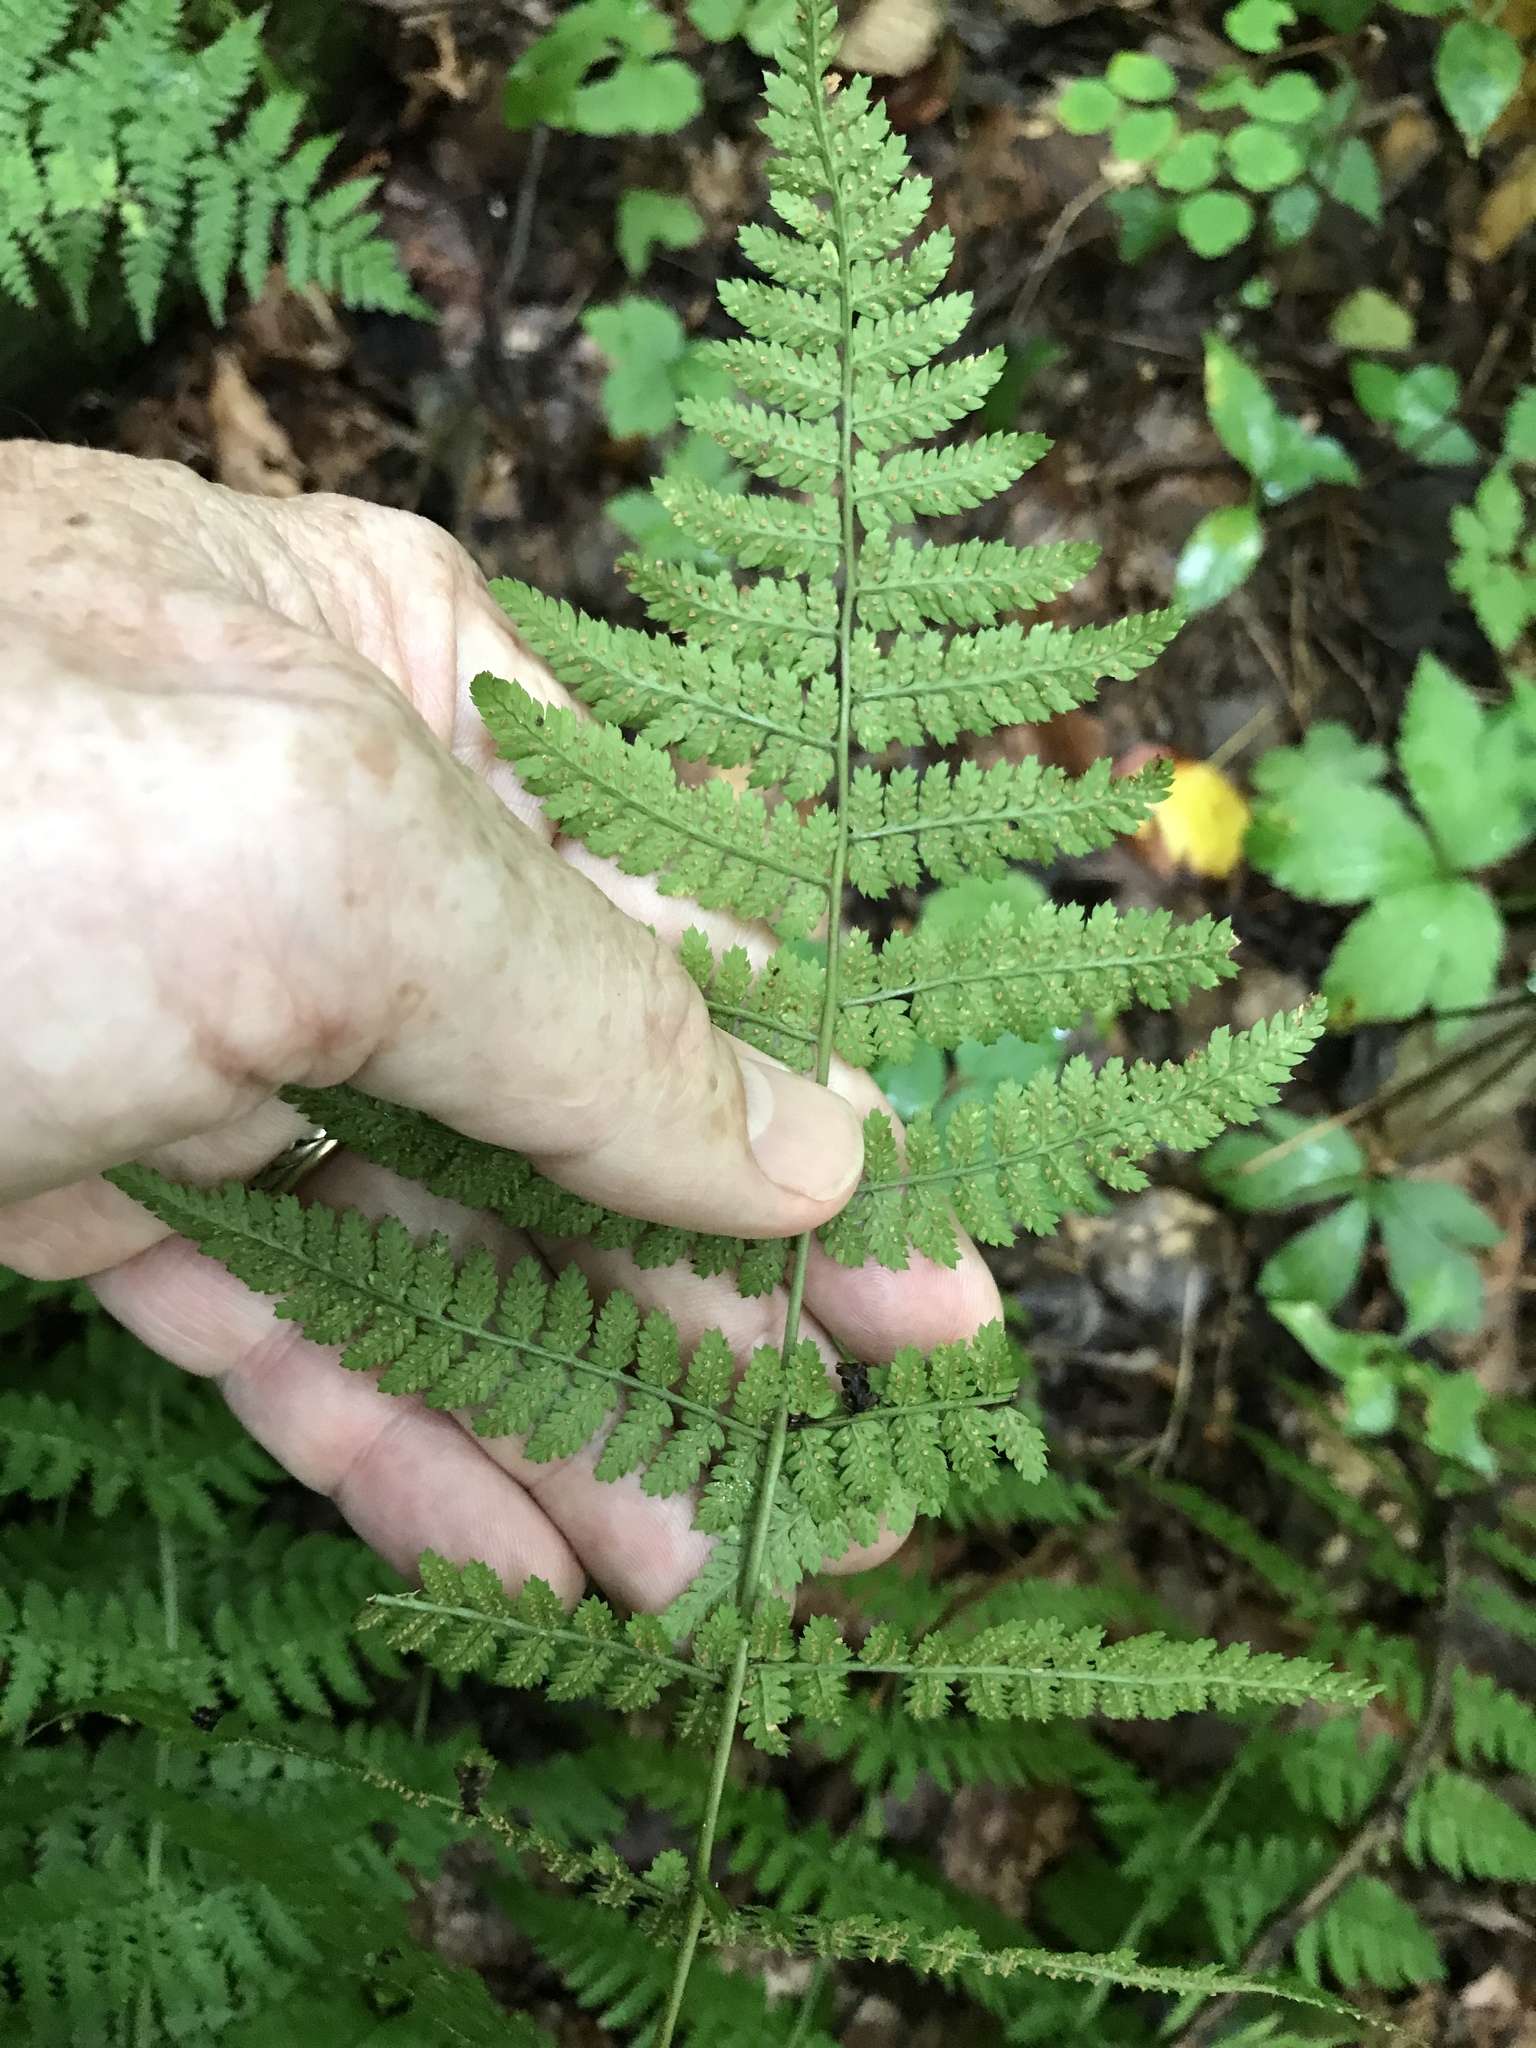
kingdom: Plantae
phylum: Tracheophyta
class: Polypodiopsida
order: Polypodiales
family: Dryopteridaceae
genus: Dryopteris
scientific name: Dryopteris intermedia
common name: Evergreen wood fern
